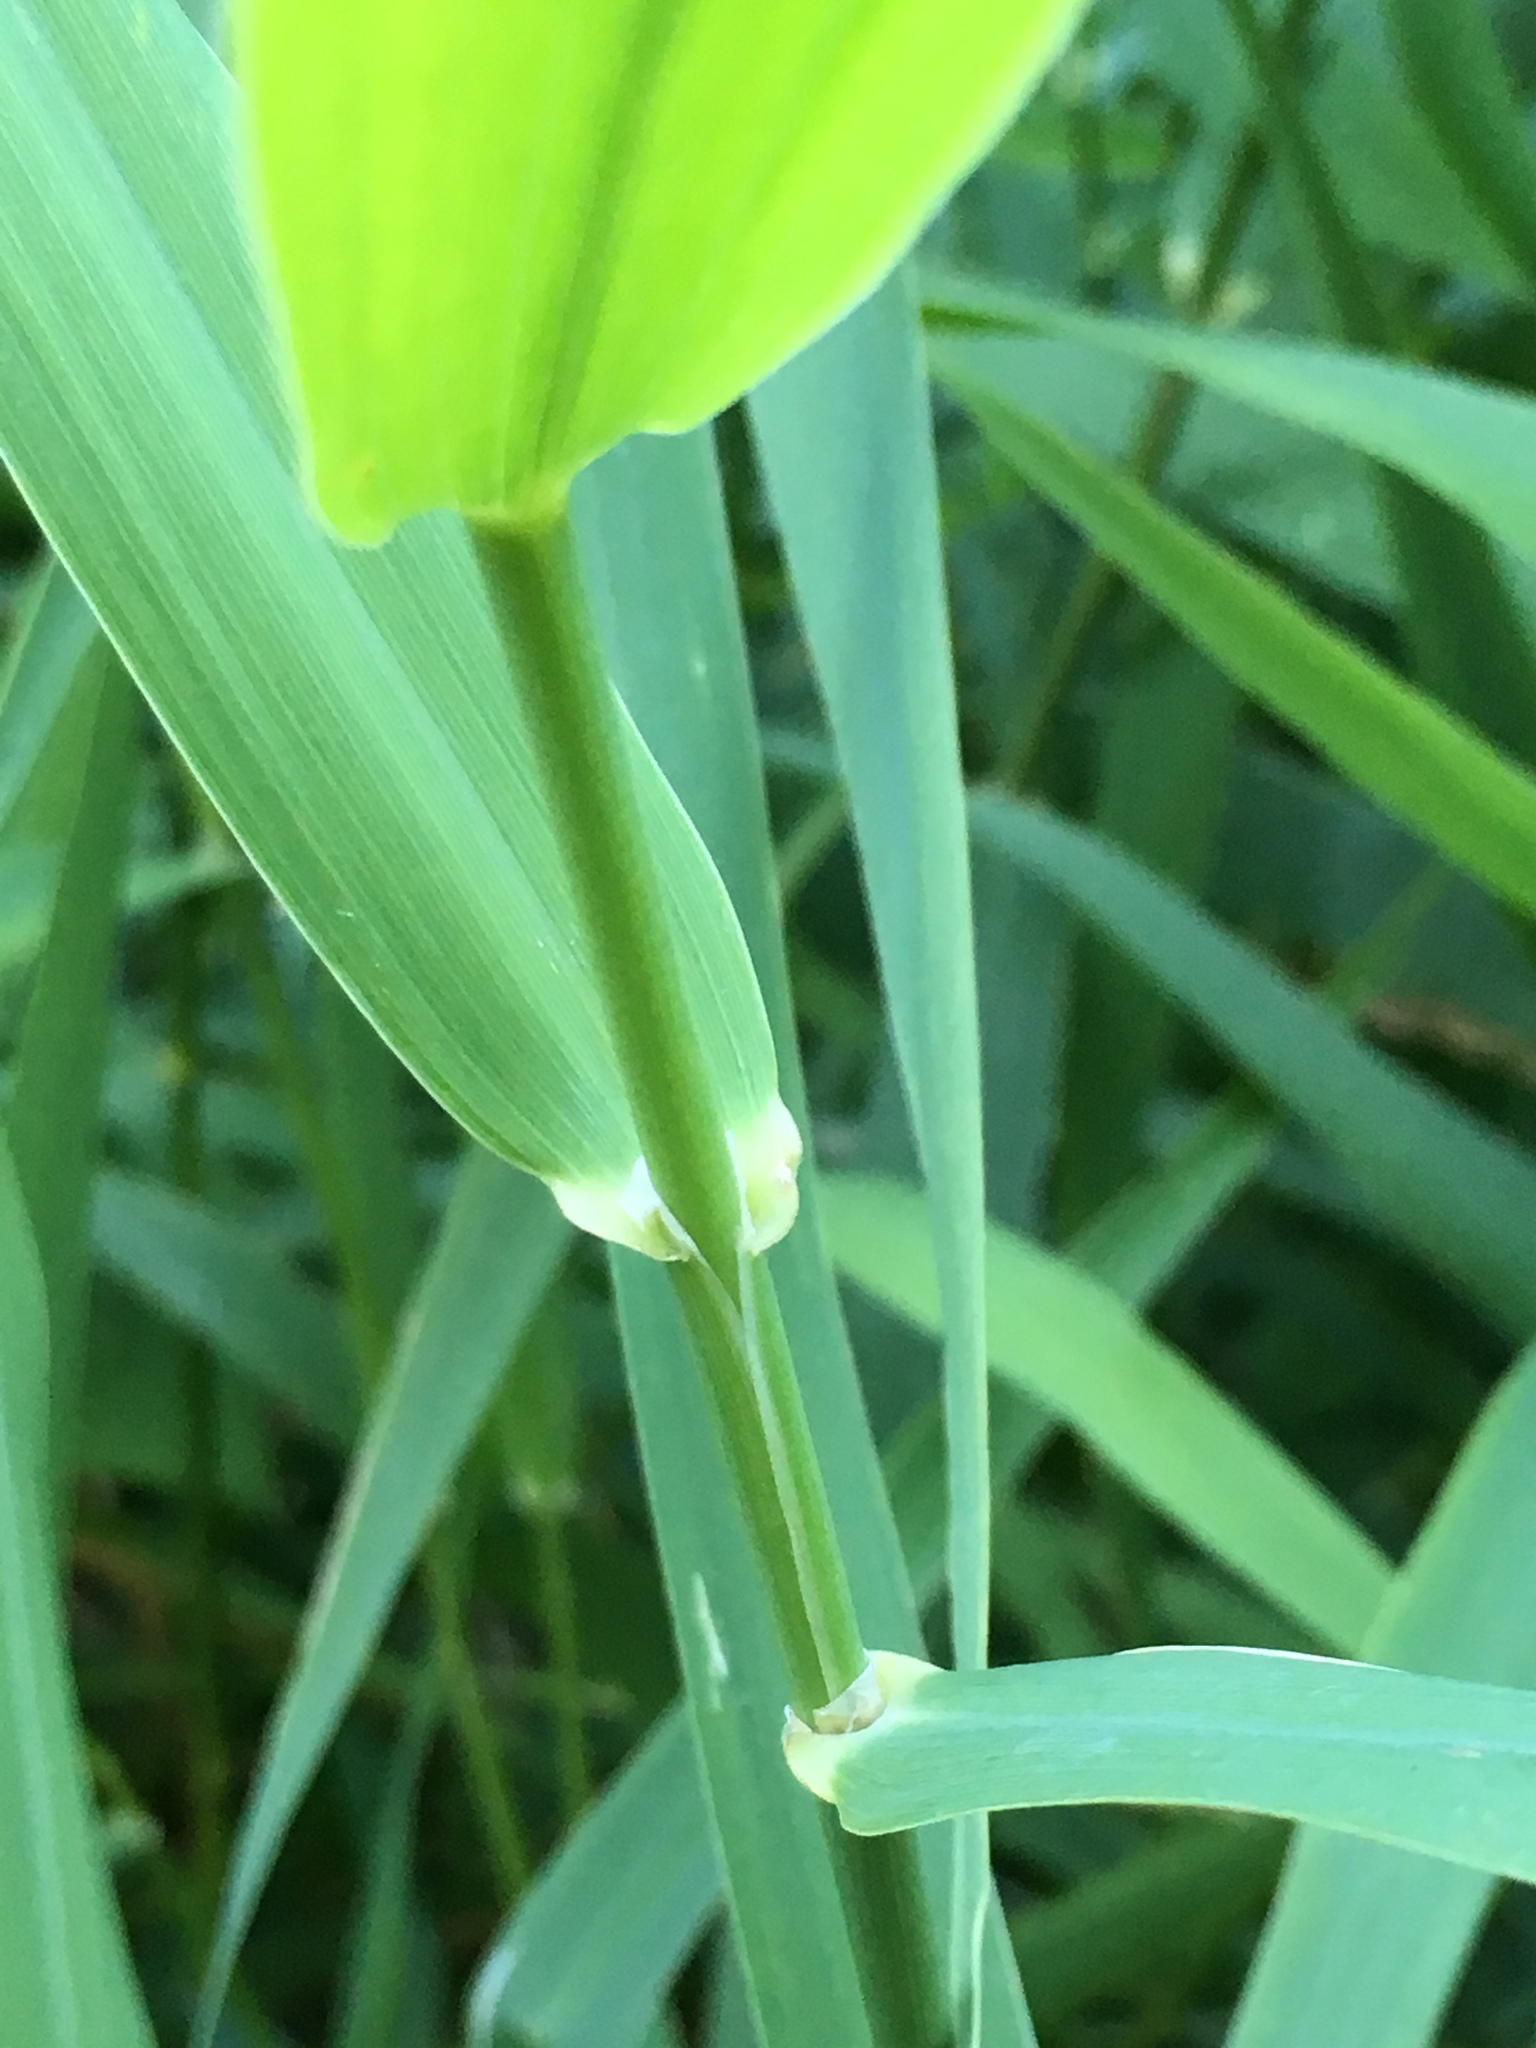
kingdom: Plantae
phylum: Tracheophyta
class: Liliopsida
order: Poales
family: Poaceae
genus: Phalaris
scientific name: Phalaris arundinacea
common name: Reed canary-grass
